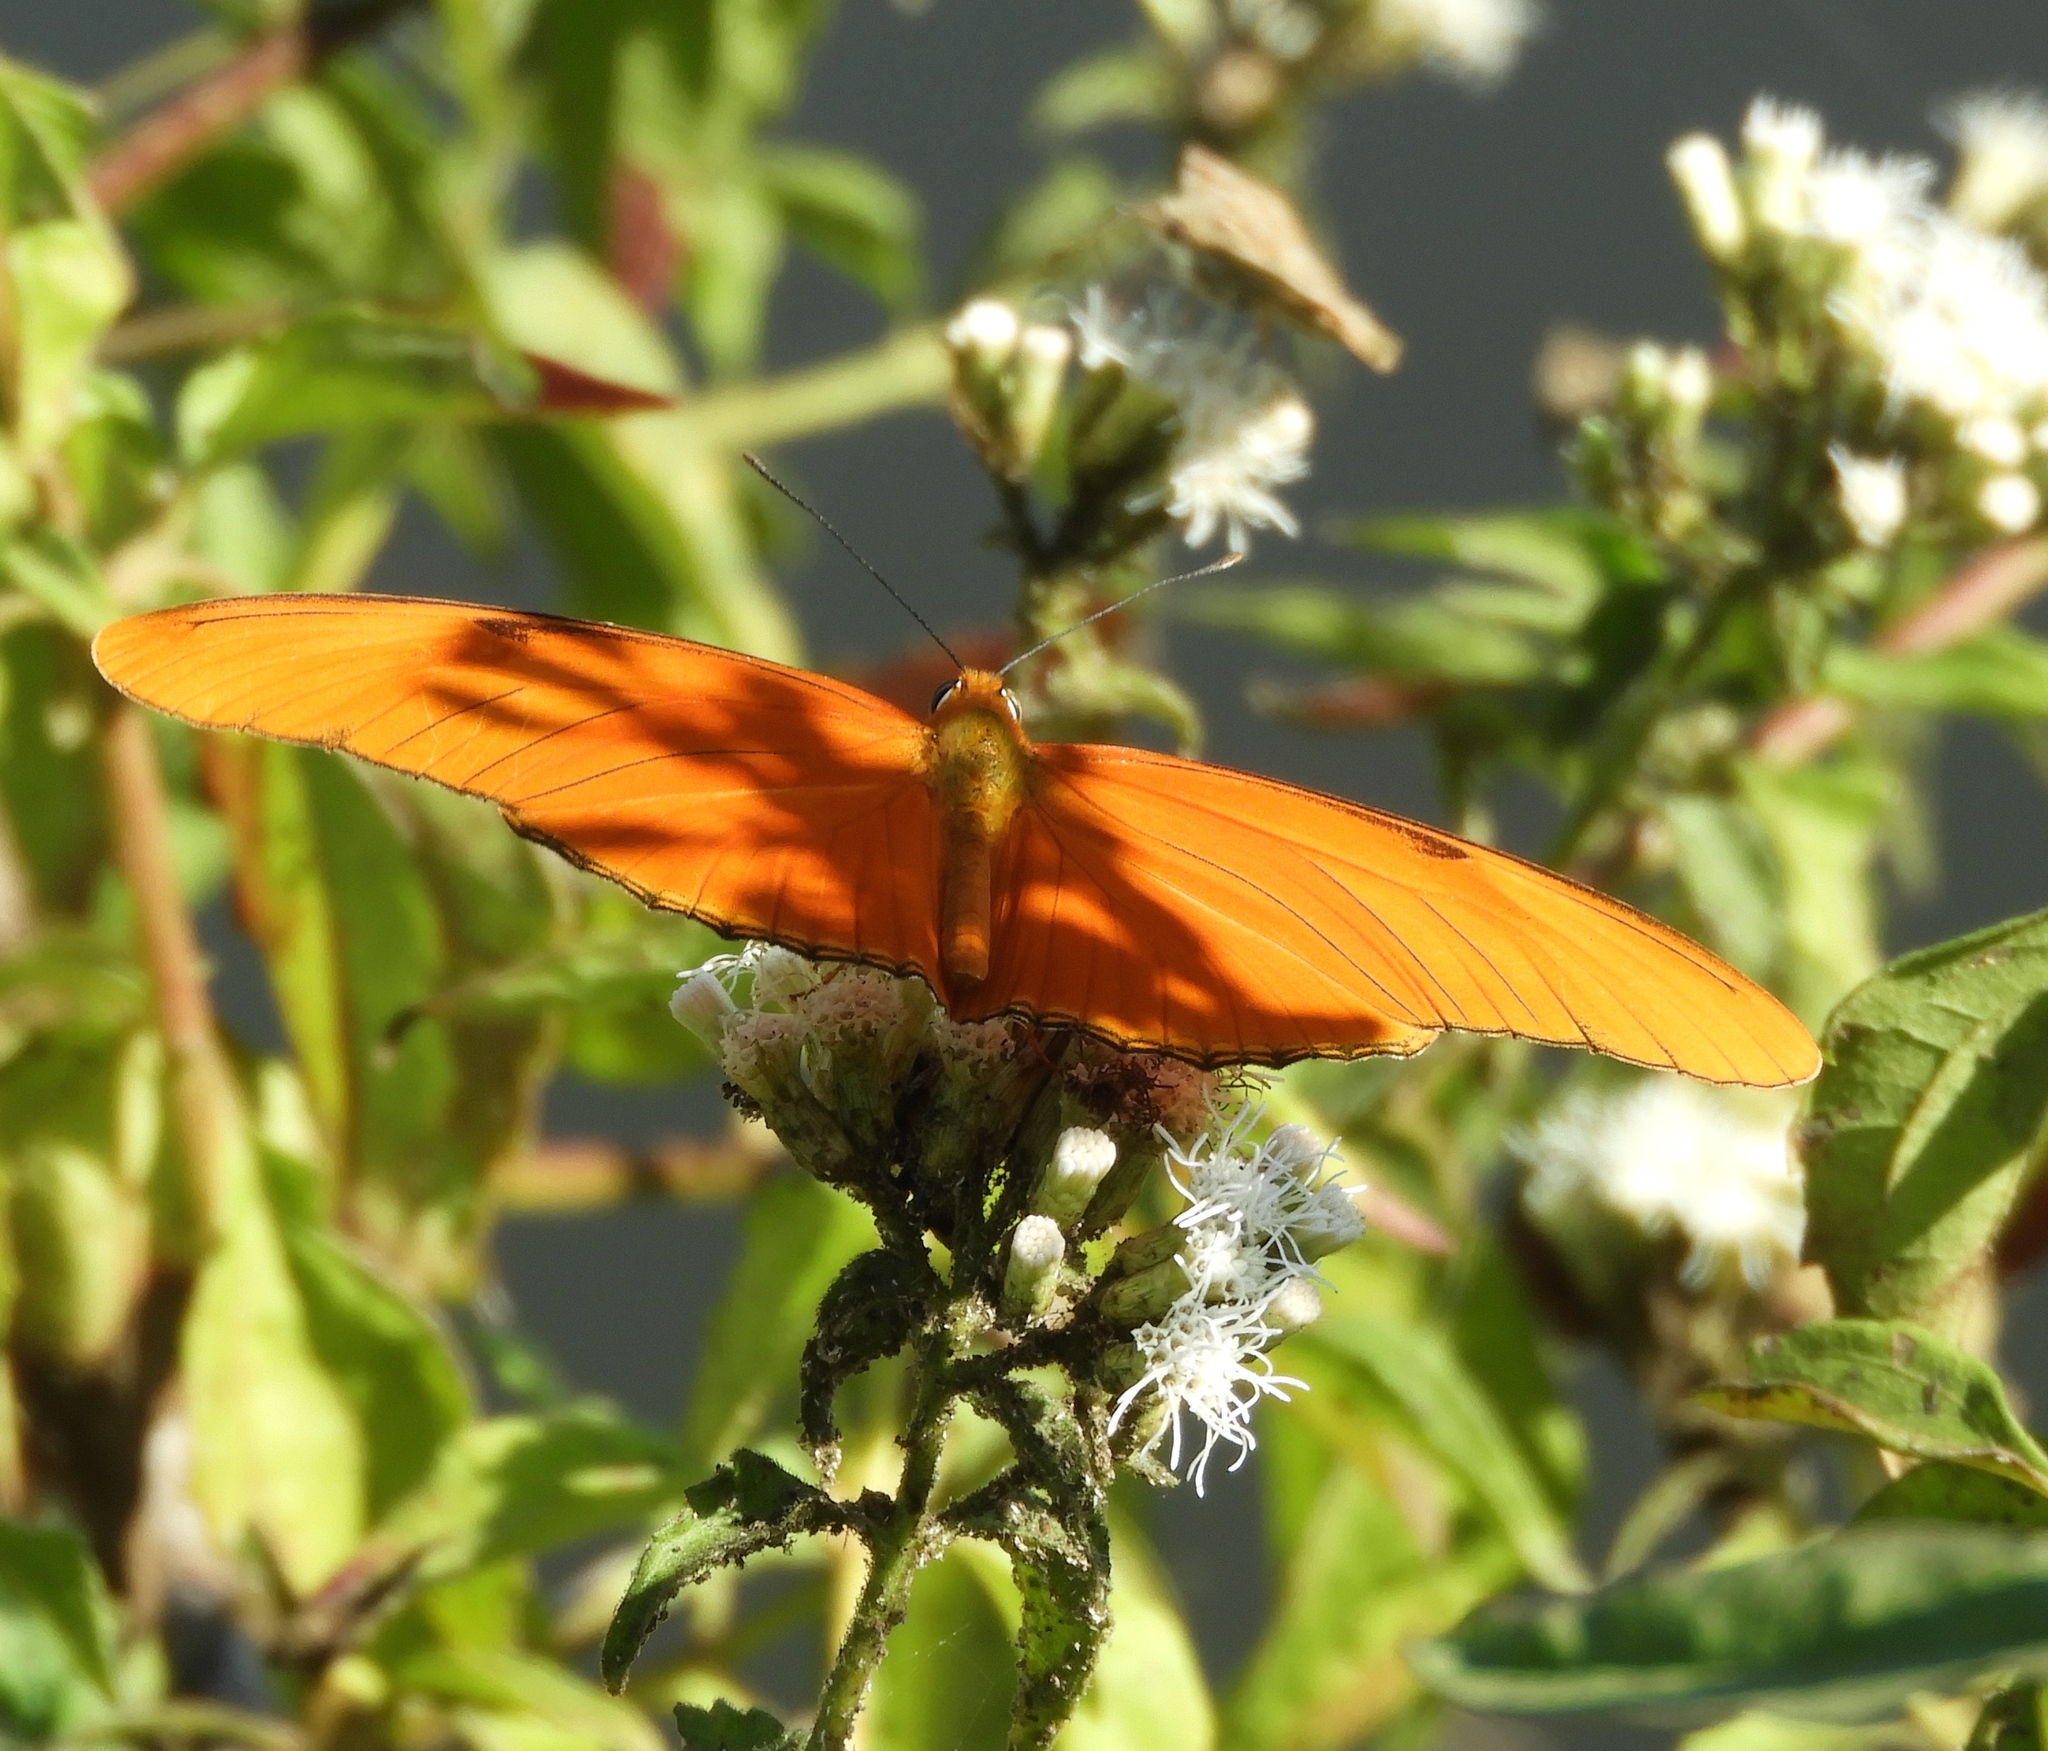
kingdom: Animalia
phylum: Arthropoda
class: Insecta
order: Lepidoptera
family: Nymphalidae
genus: Dryas
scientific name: Dryas iulia
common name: Flambeau
